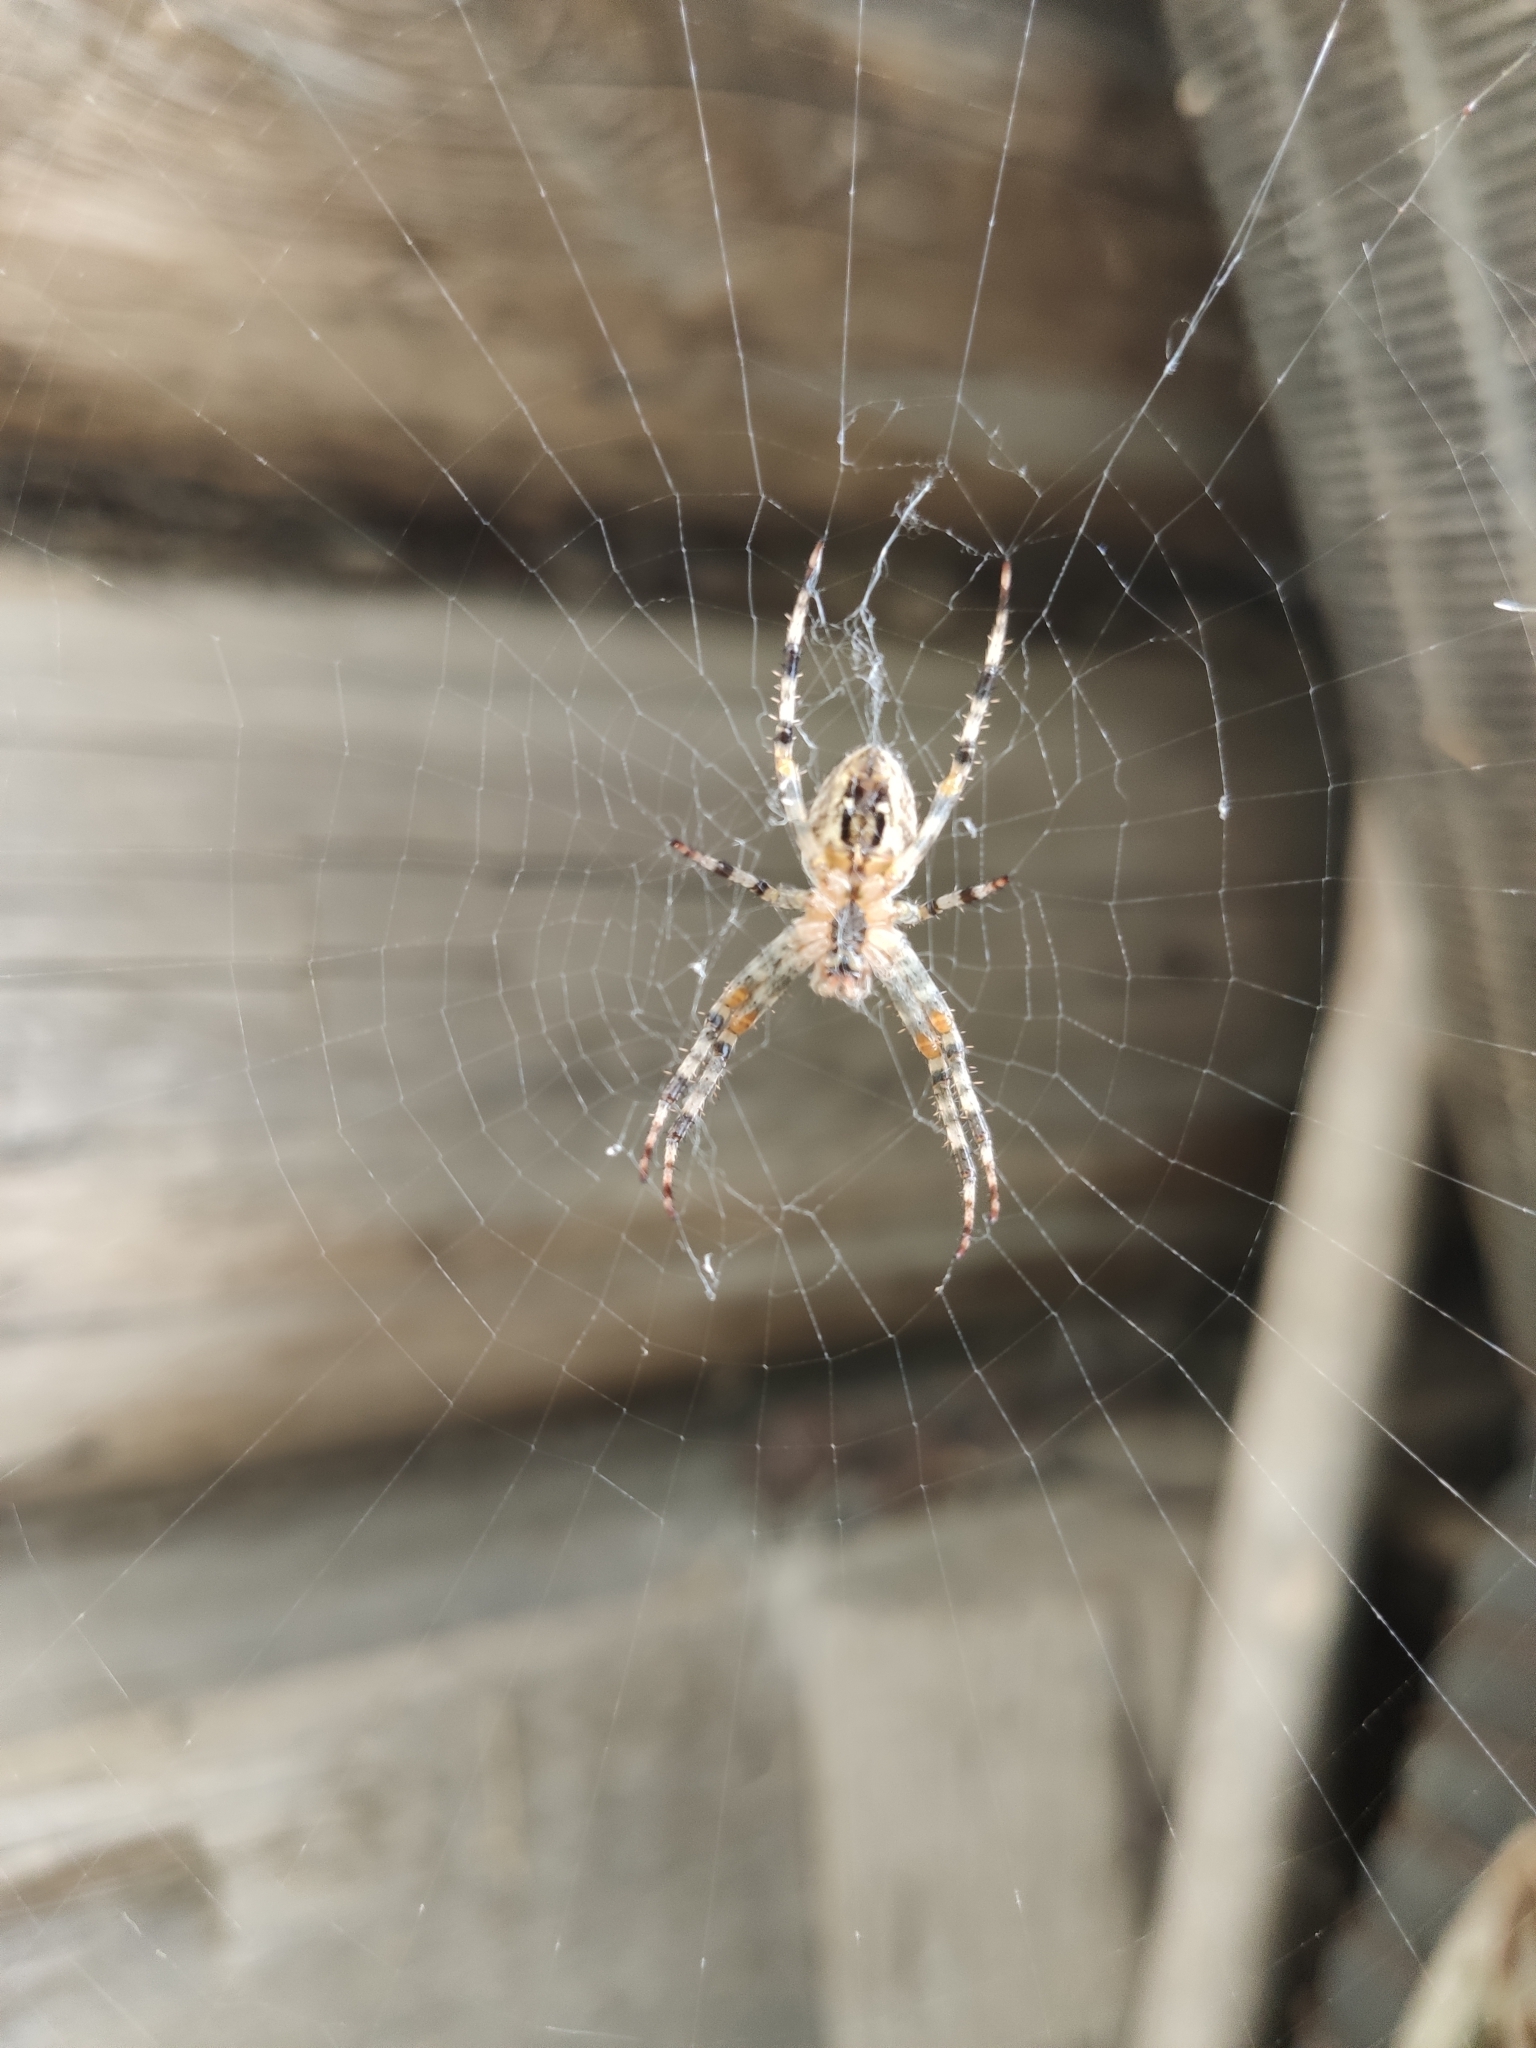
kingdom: Animalia
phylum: Arthropoda
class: Arachnida
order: Araneae
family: Araneidae
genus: Araneus
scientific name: Araneus diadematus
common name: Cross orbweaver
